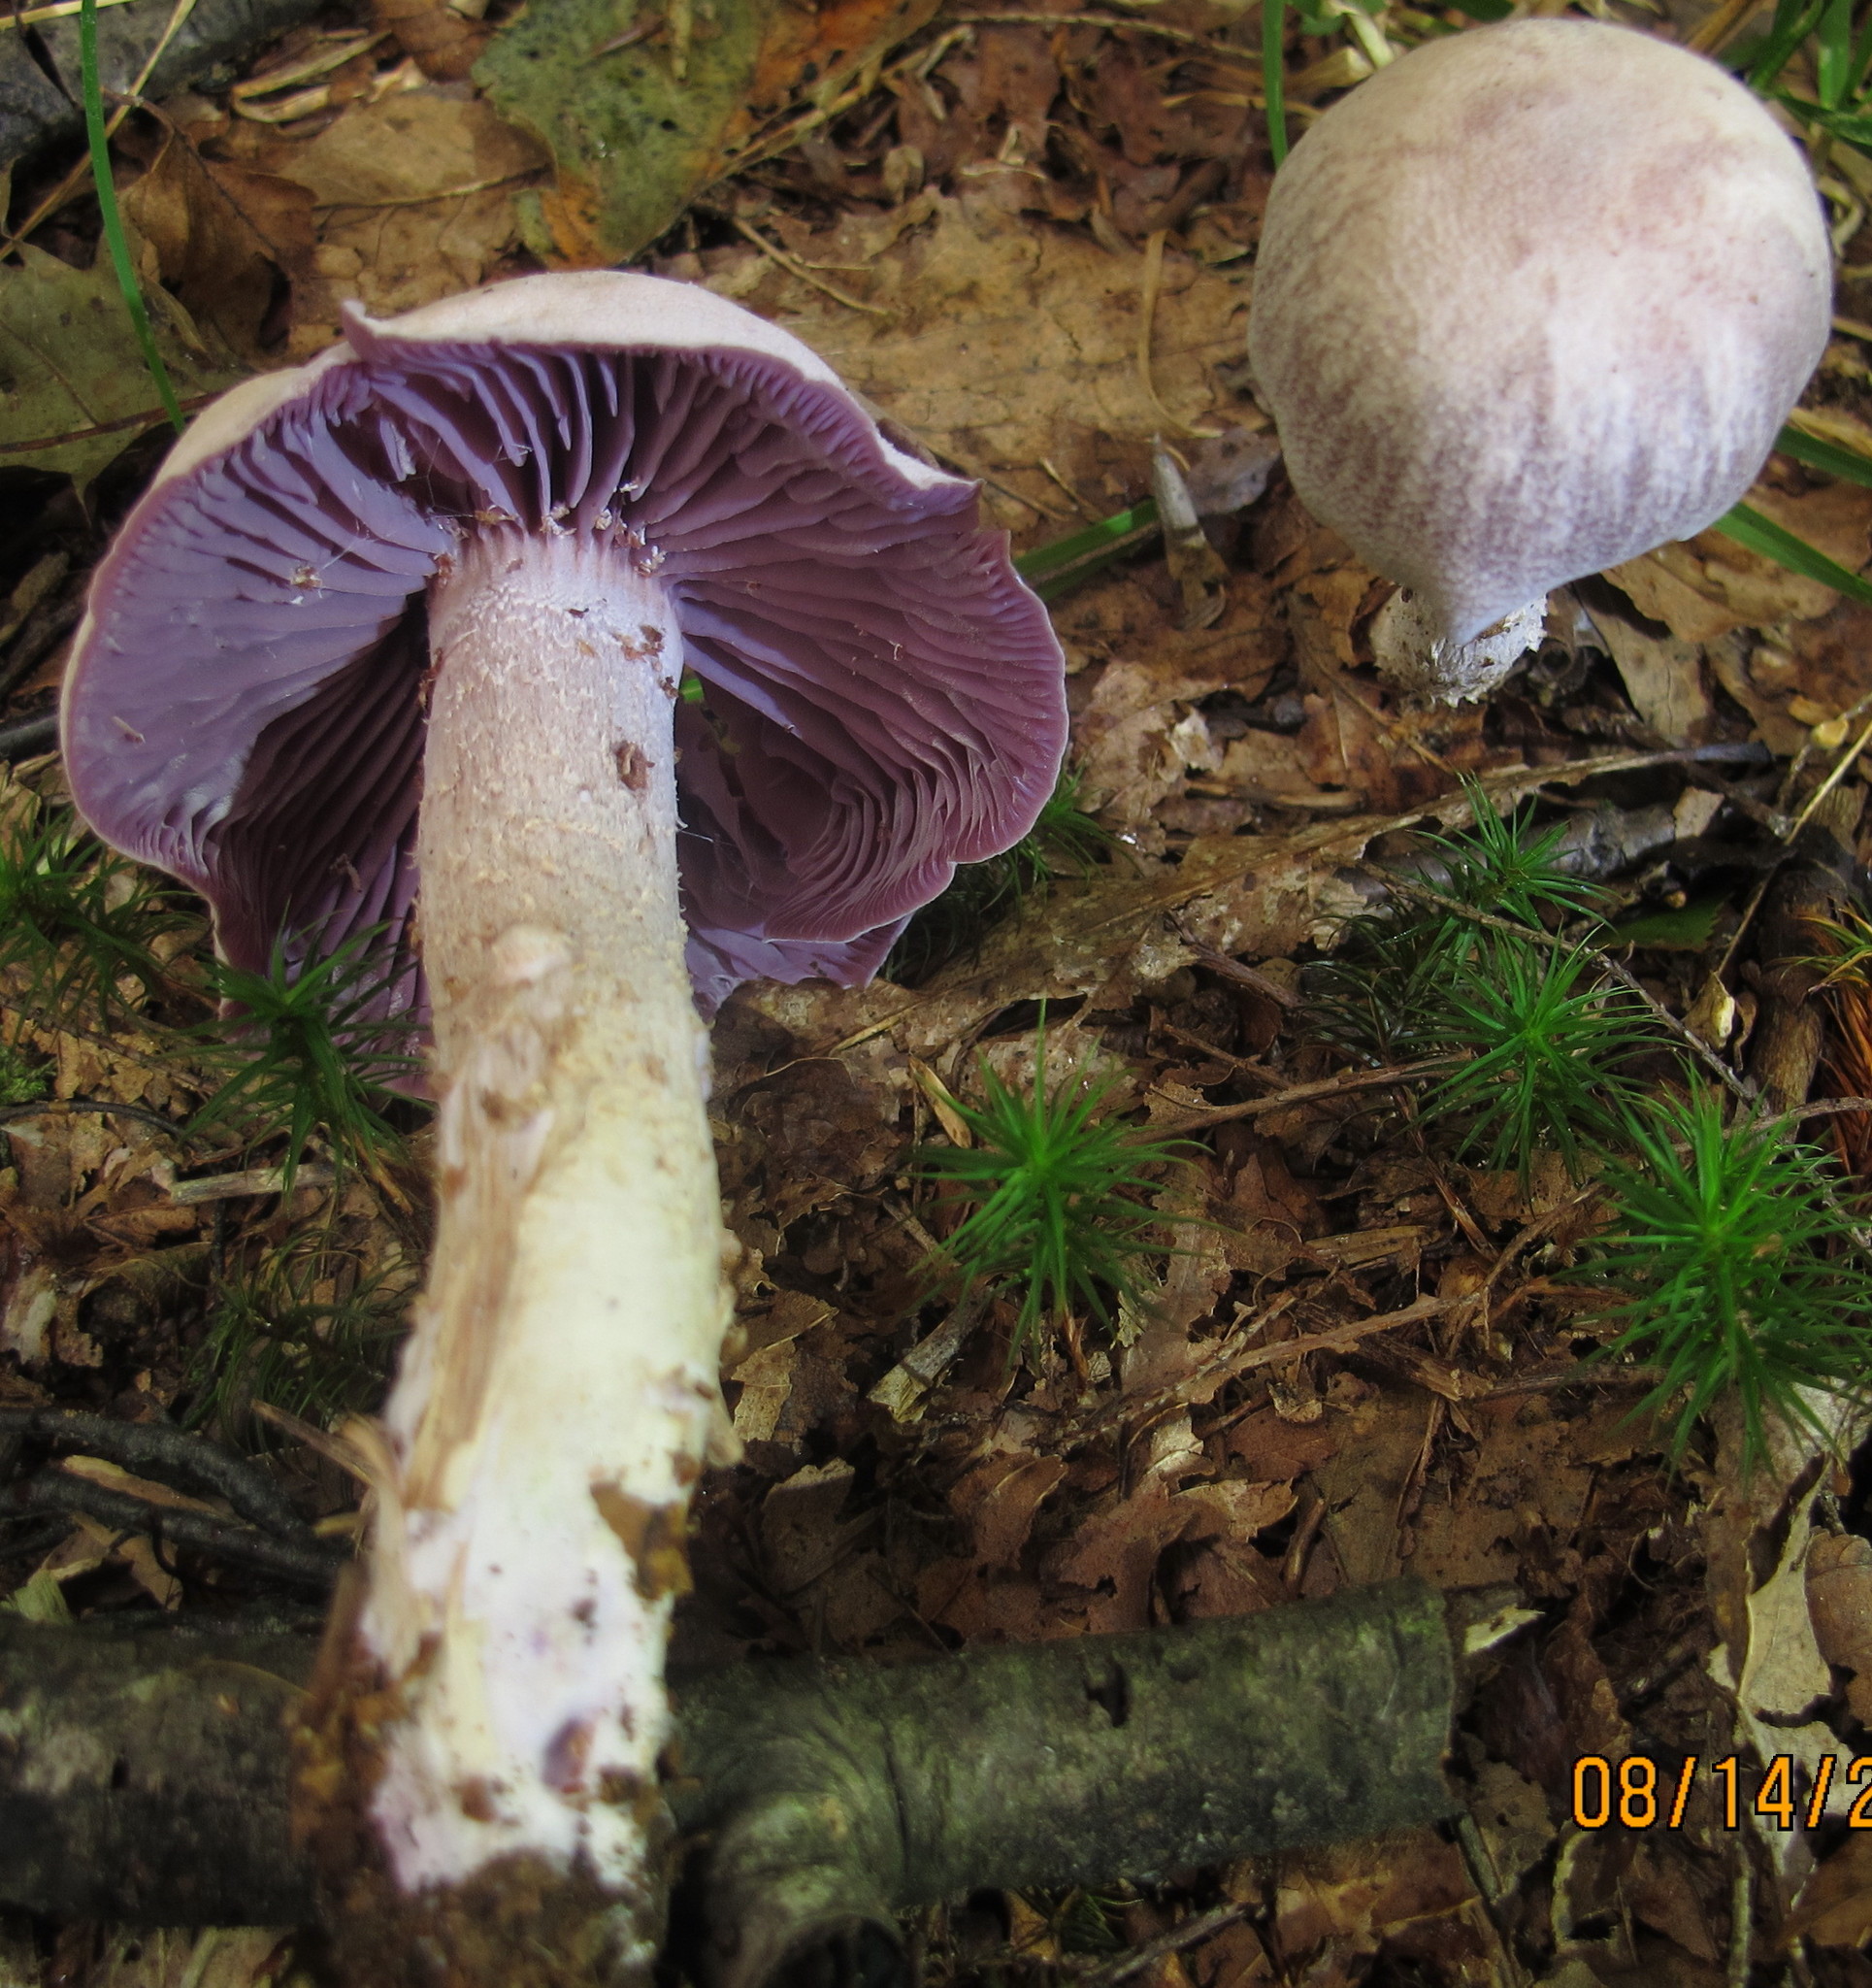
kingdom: Fungi
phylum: Basidiomycota
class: Agaricomycetes
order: Agaricales
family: Hydnangiaceae
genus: Laccaria
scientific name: Laccaria ochropurpurea
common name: Purple laccaria
